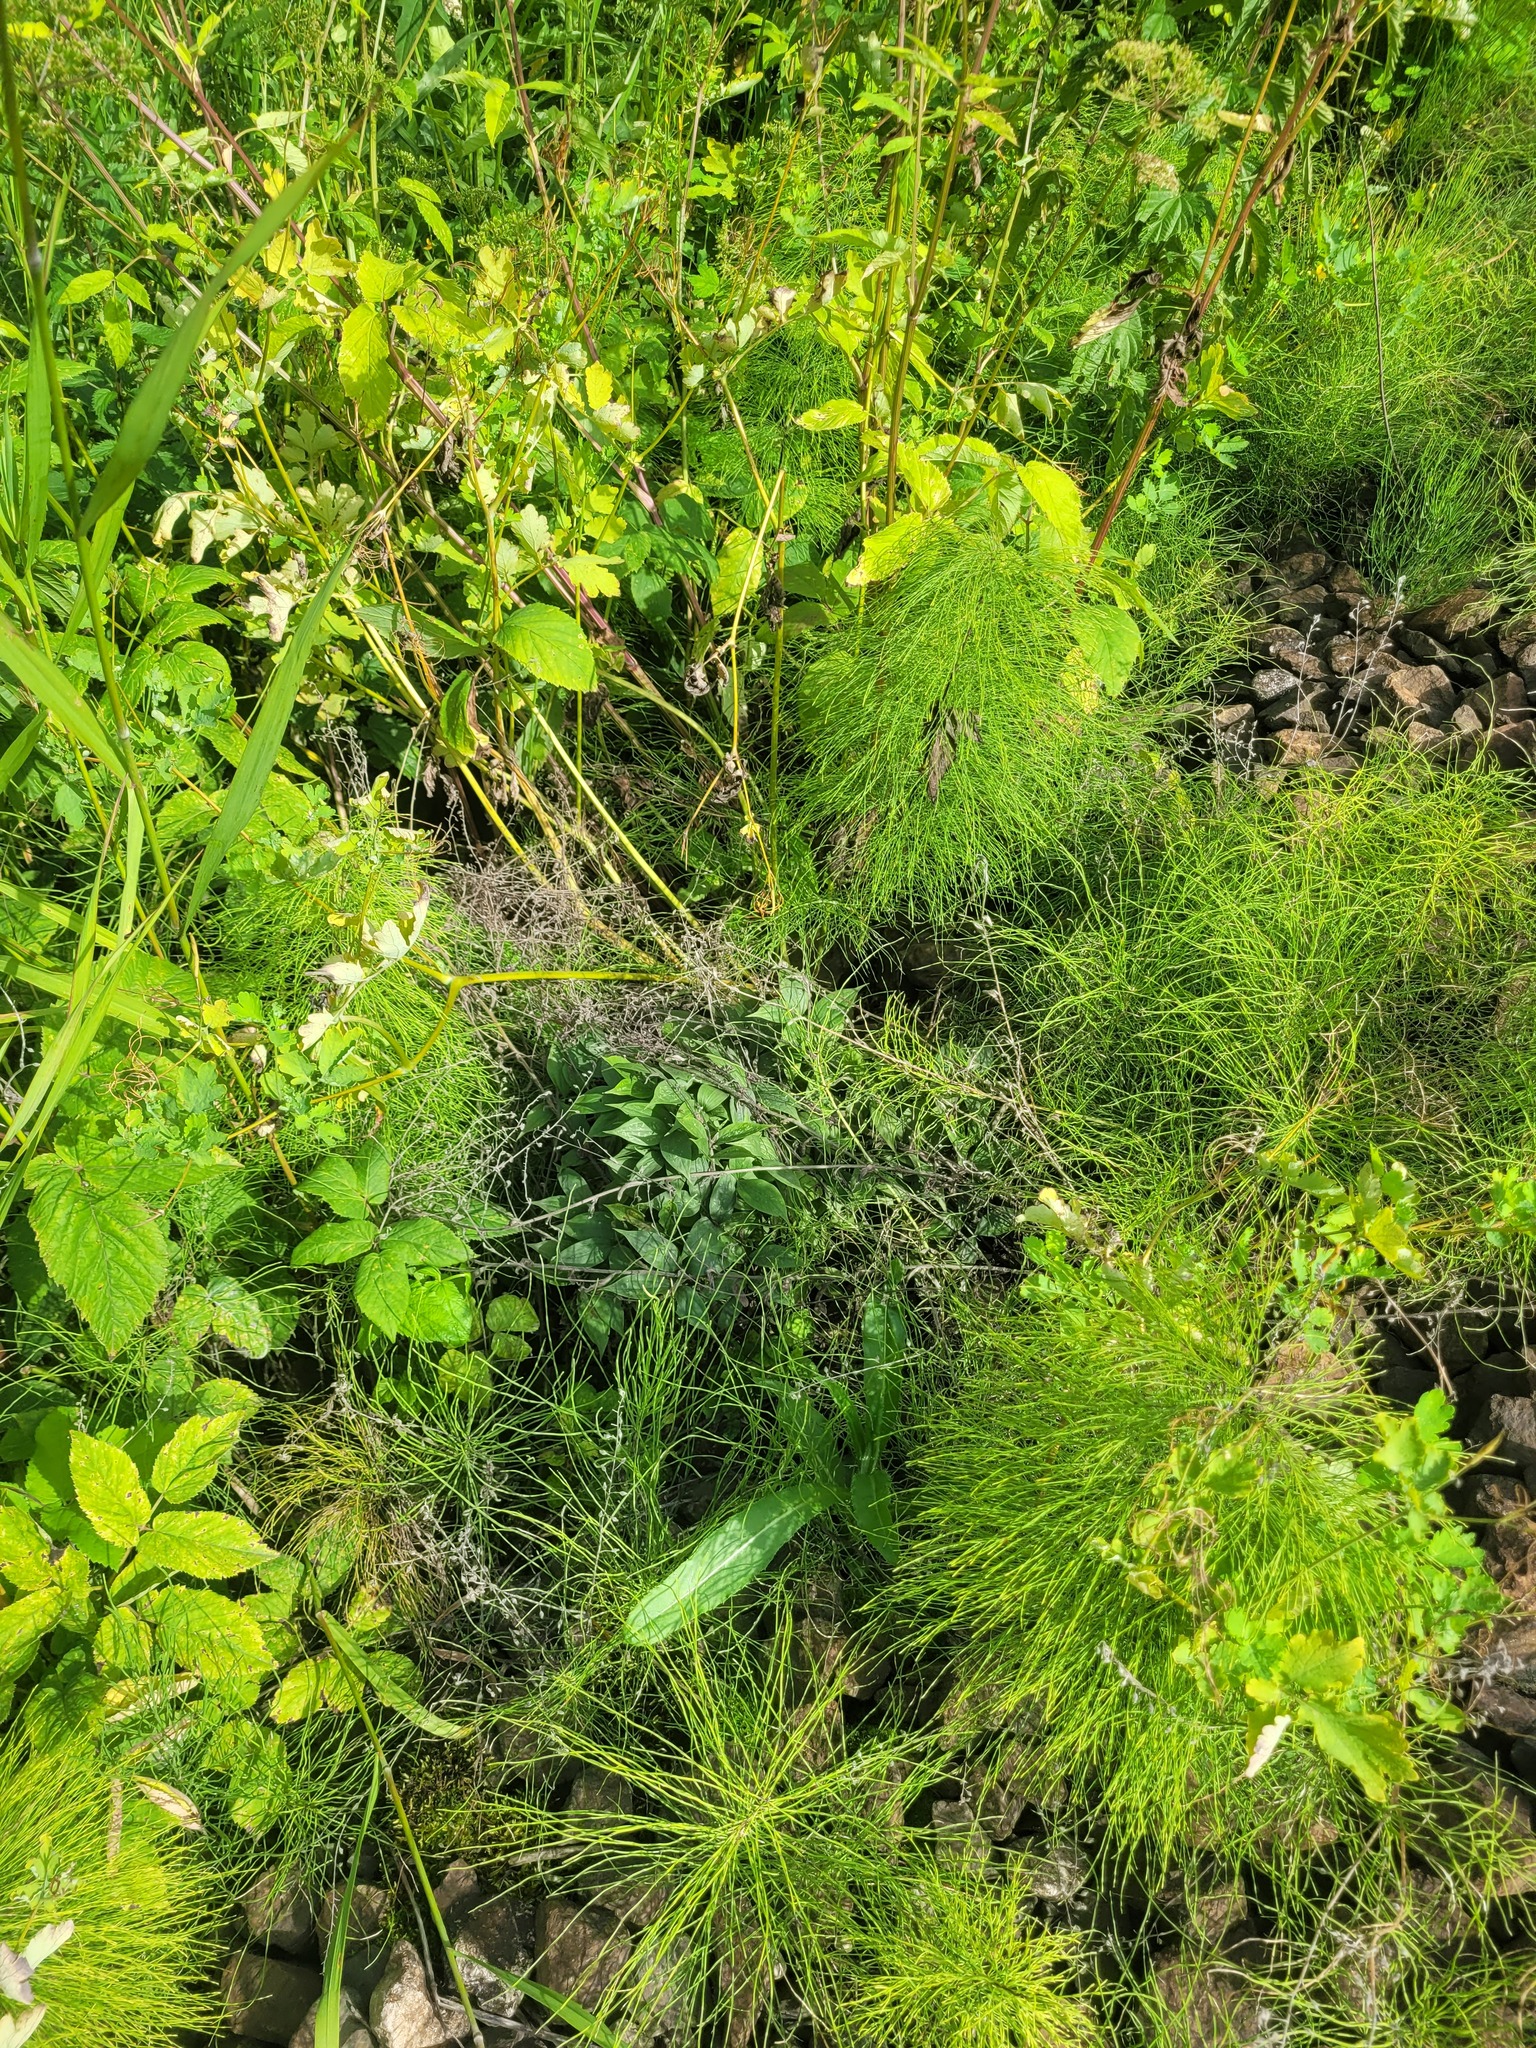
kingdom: Plantae
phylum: Tracheophyta
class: Magnoliopsida
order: Fabales
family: Fabaceae
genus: Lathyrus
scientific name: Lathyrus vernus
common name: Spring pea
